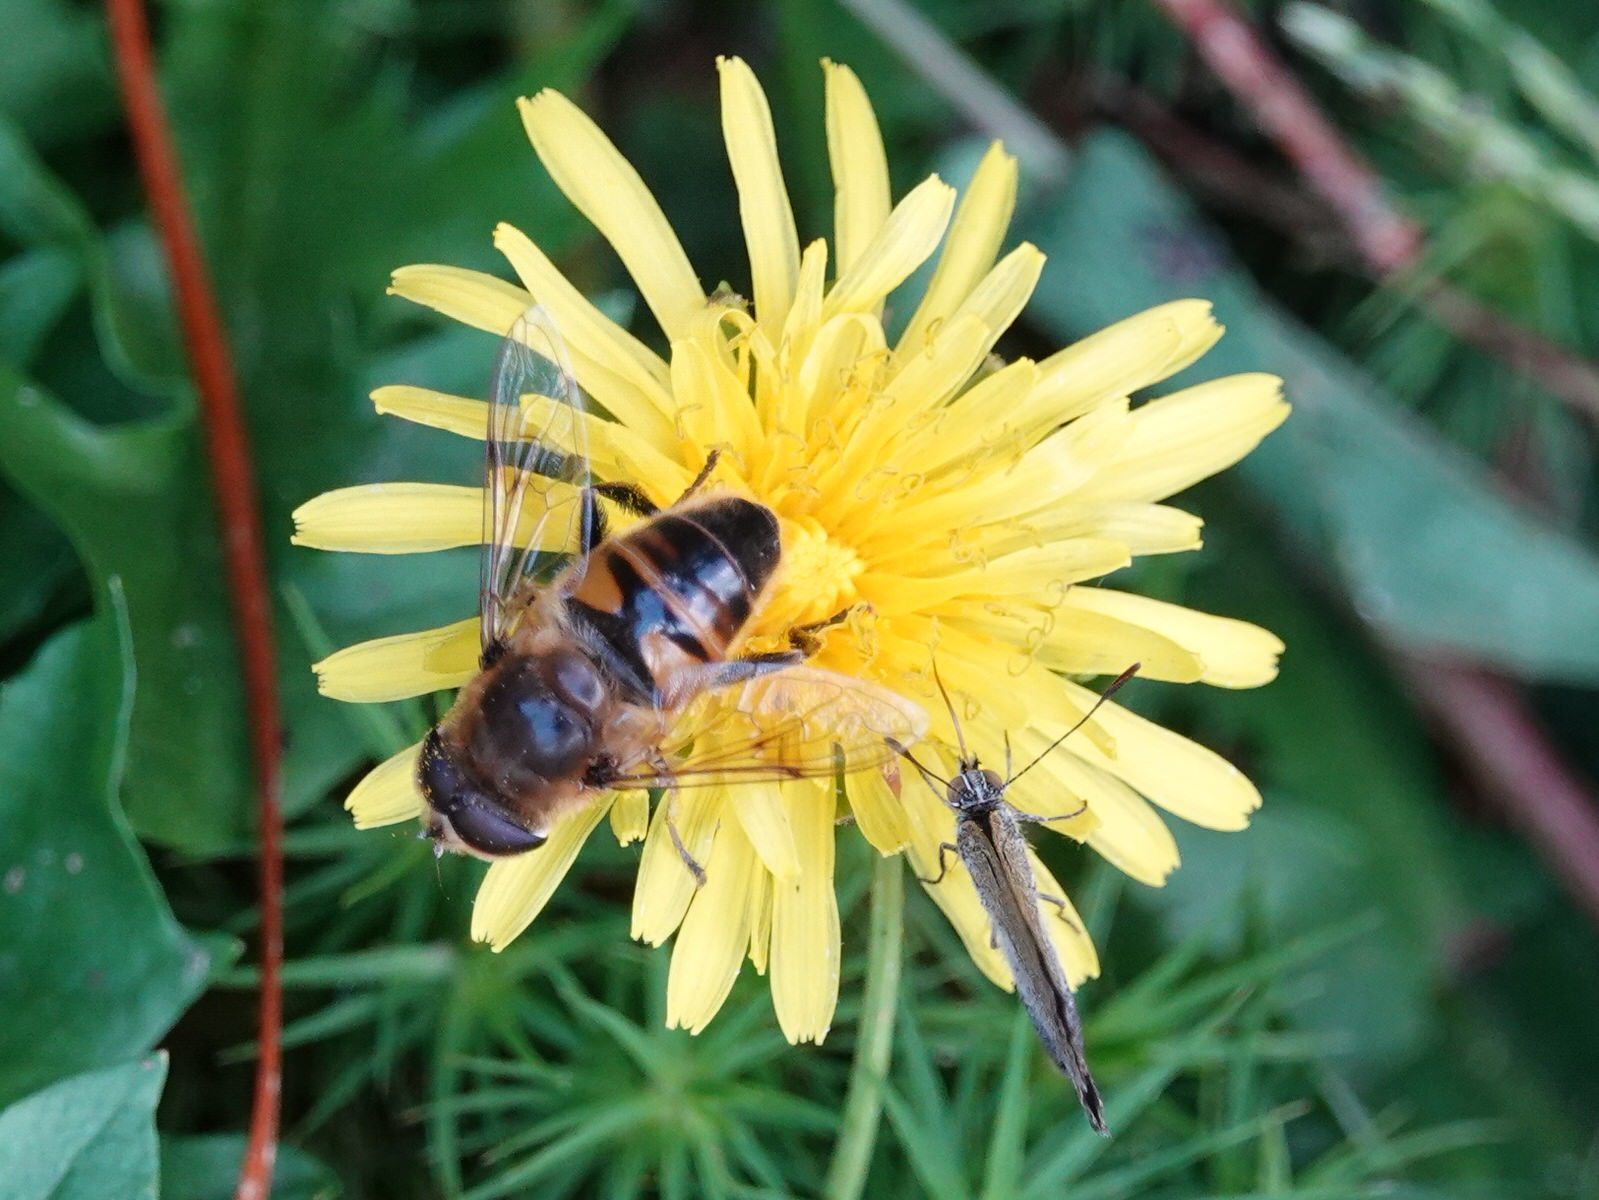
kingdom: Animalia
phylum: Arthropoda
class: Insecta
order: Diptera
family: Syrphidae
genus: Eristalis
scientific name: Eristalis tenax
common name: Drone fly
